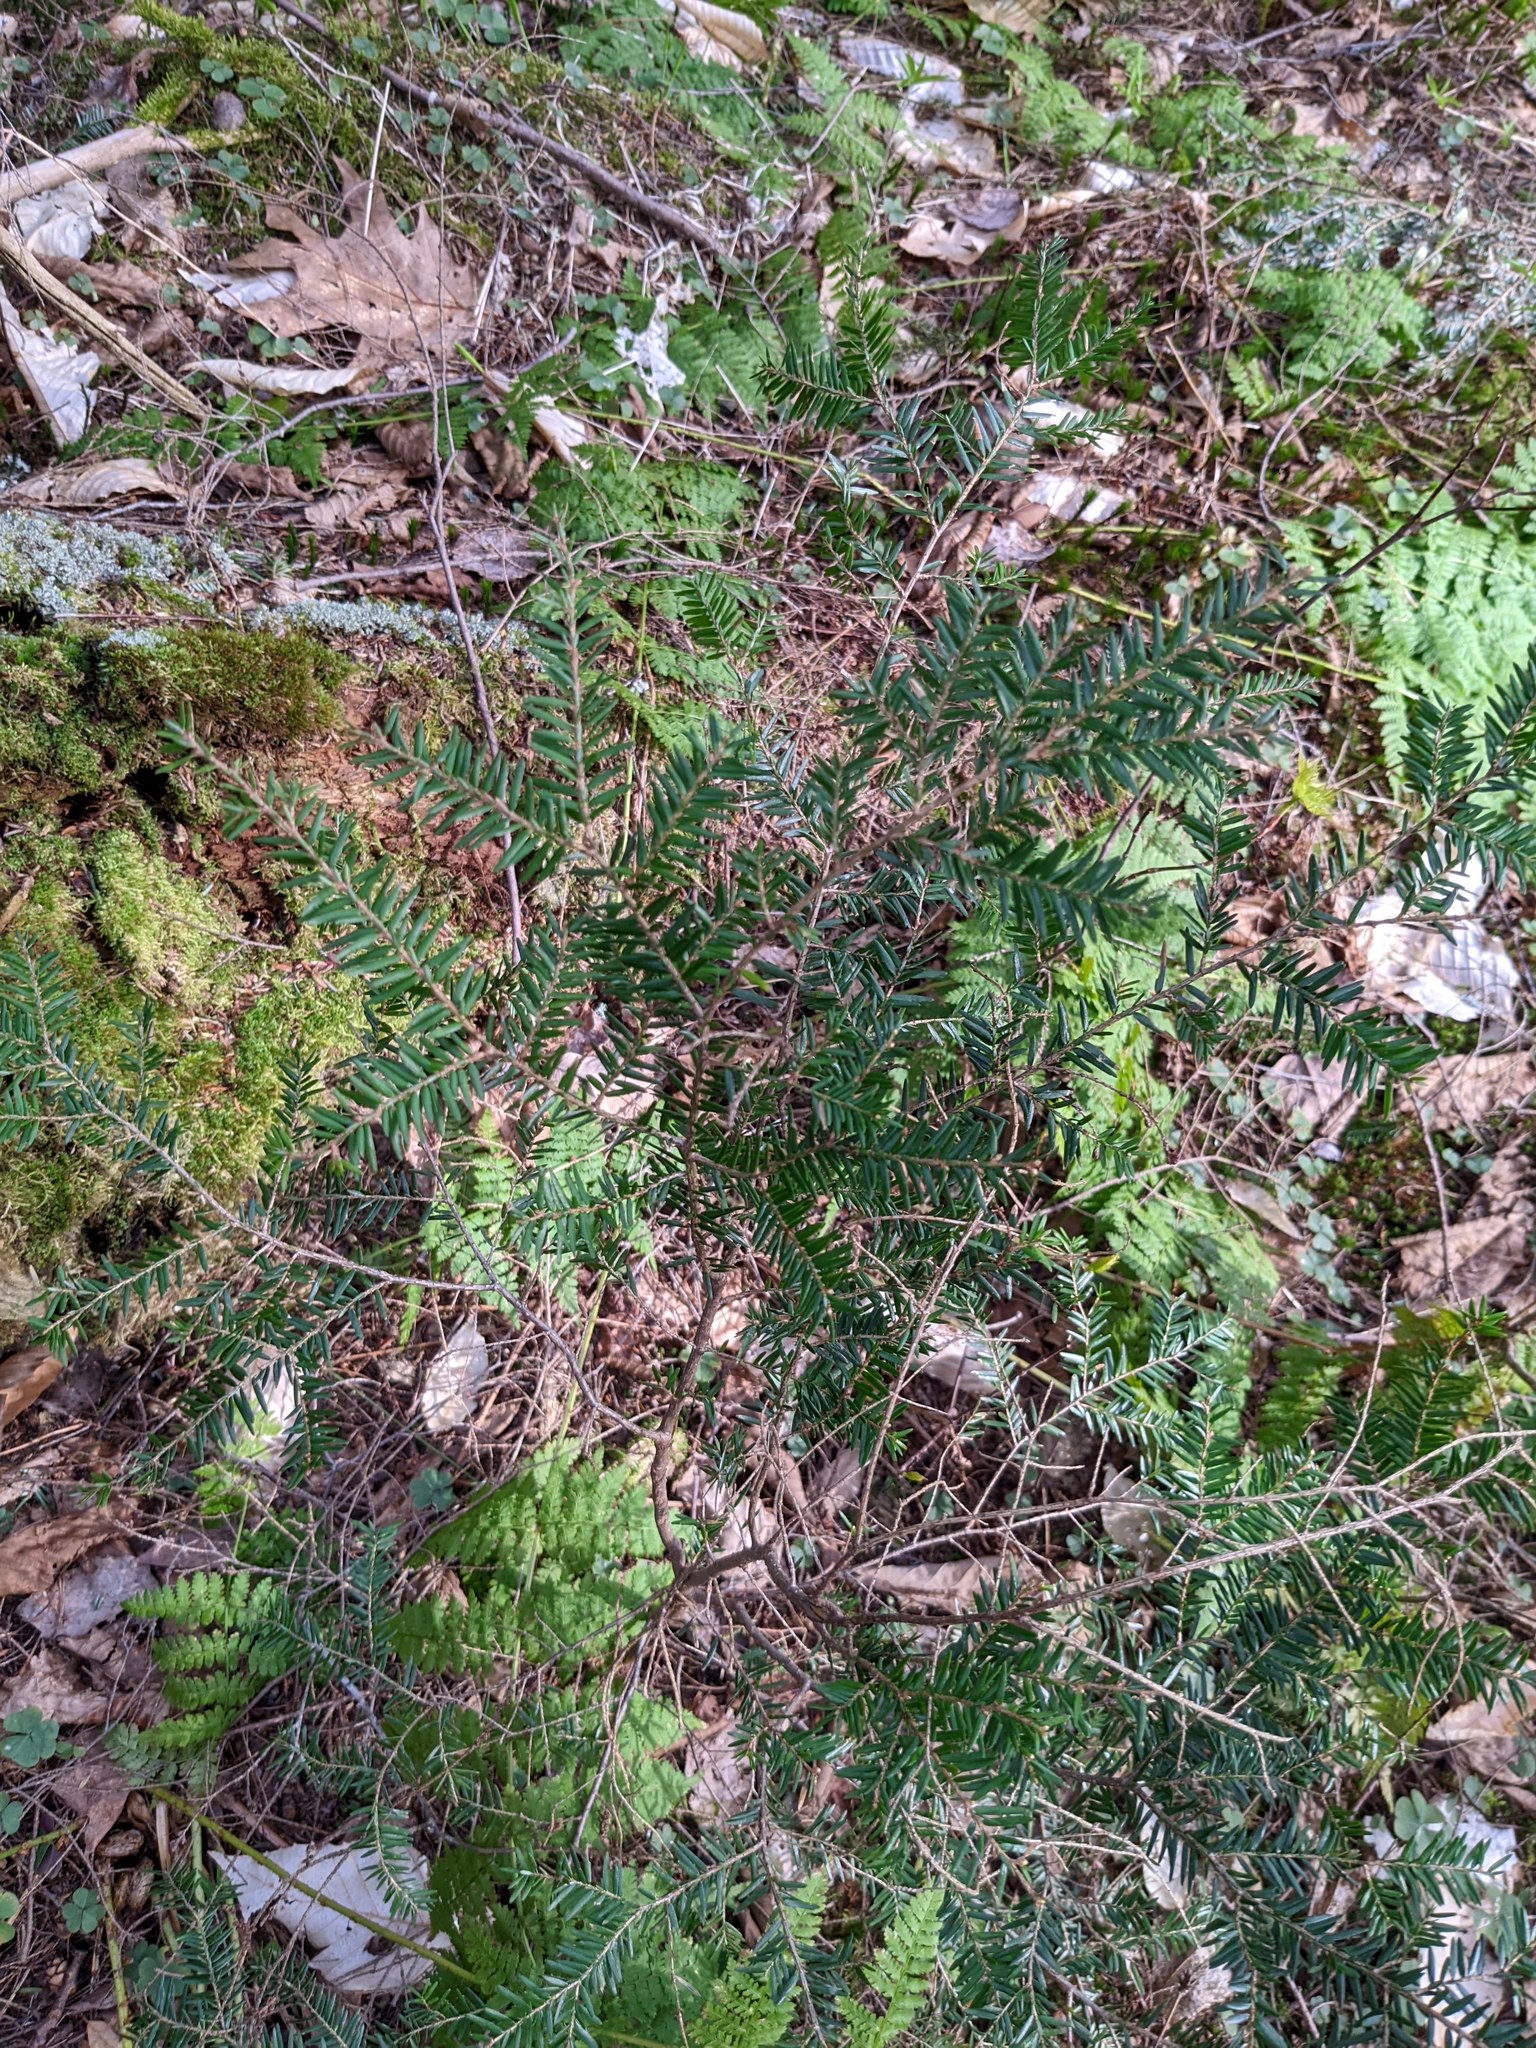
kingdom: Plantae
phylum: Tracheophyta
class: Pinopsida
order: Pinales
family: Pinaceae
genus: Tsuga
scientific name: Tsuga canadensis
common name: Eastern hemlock
